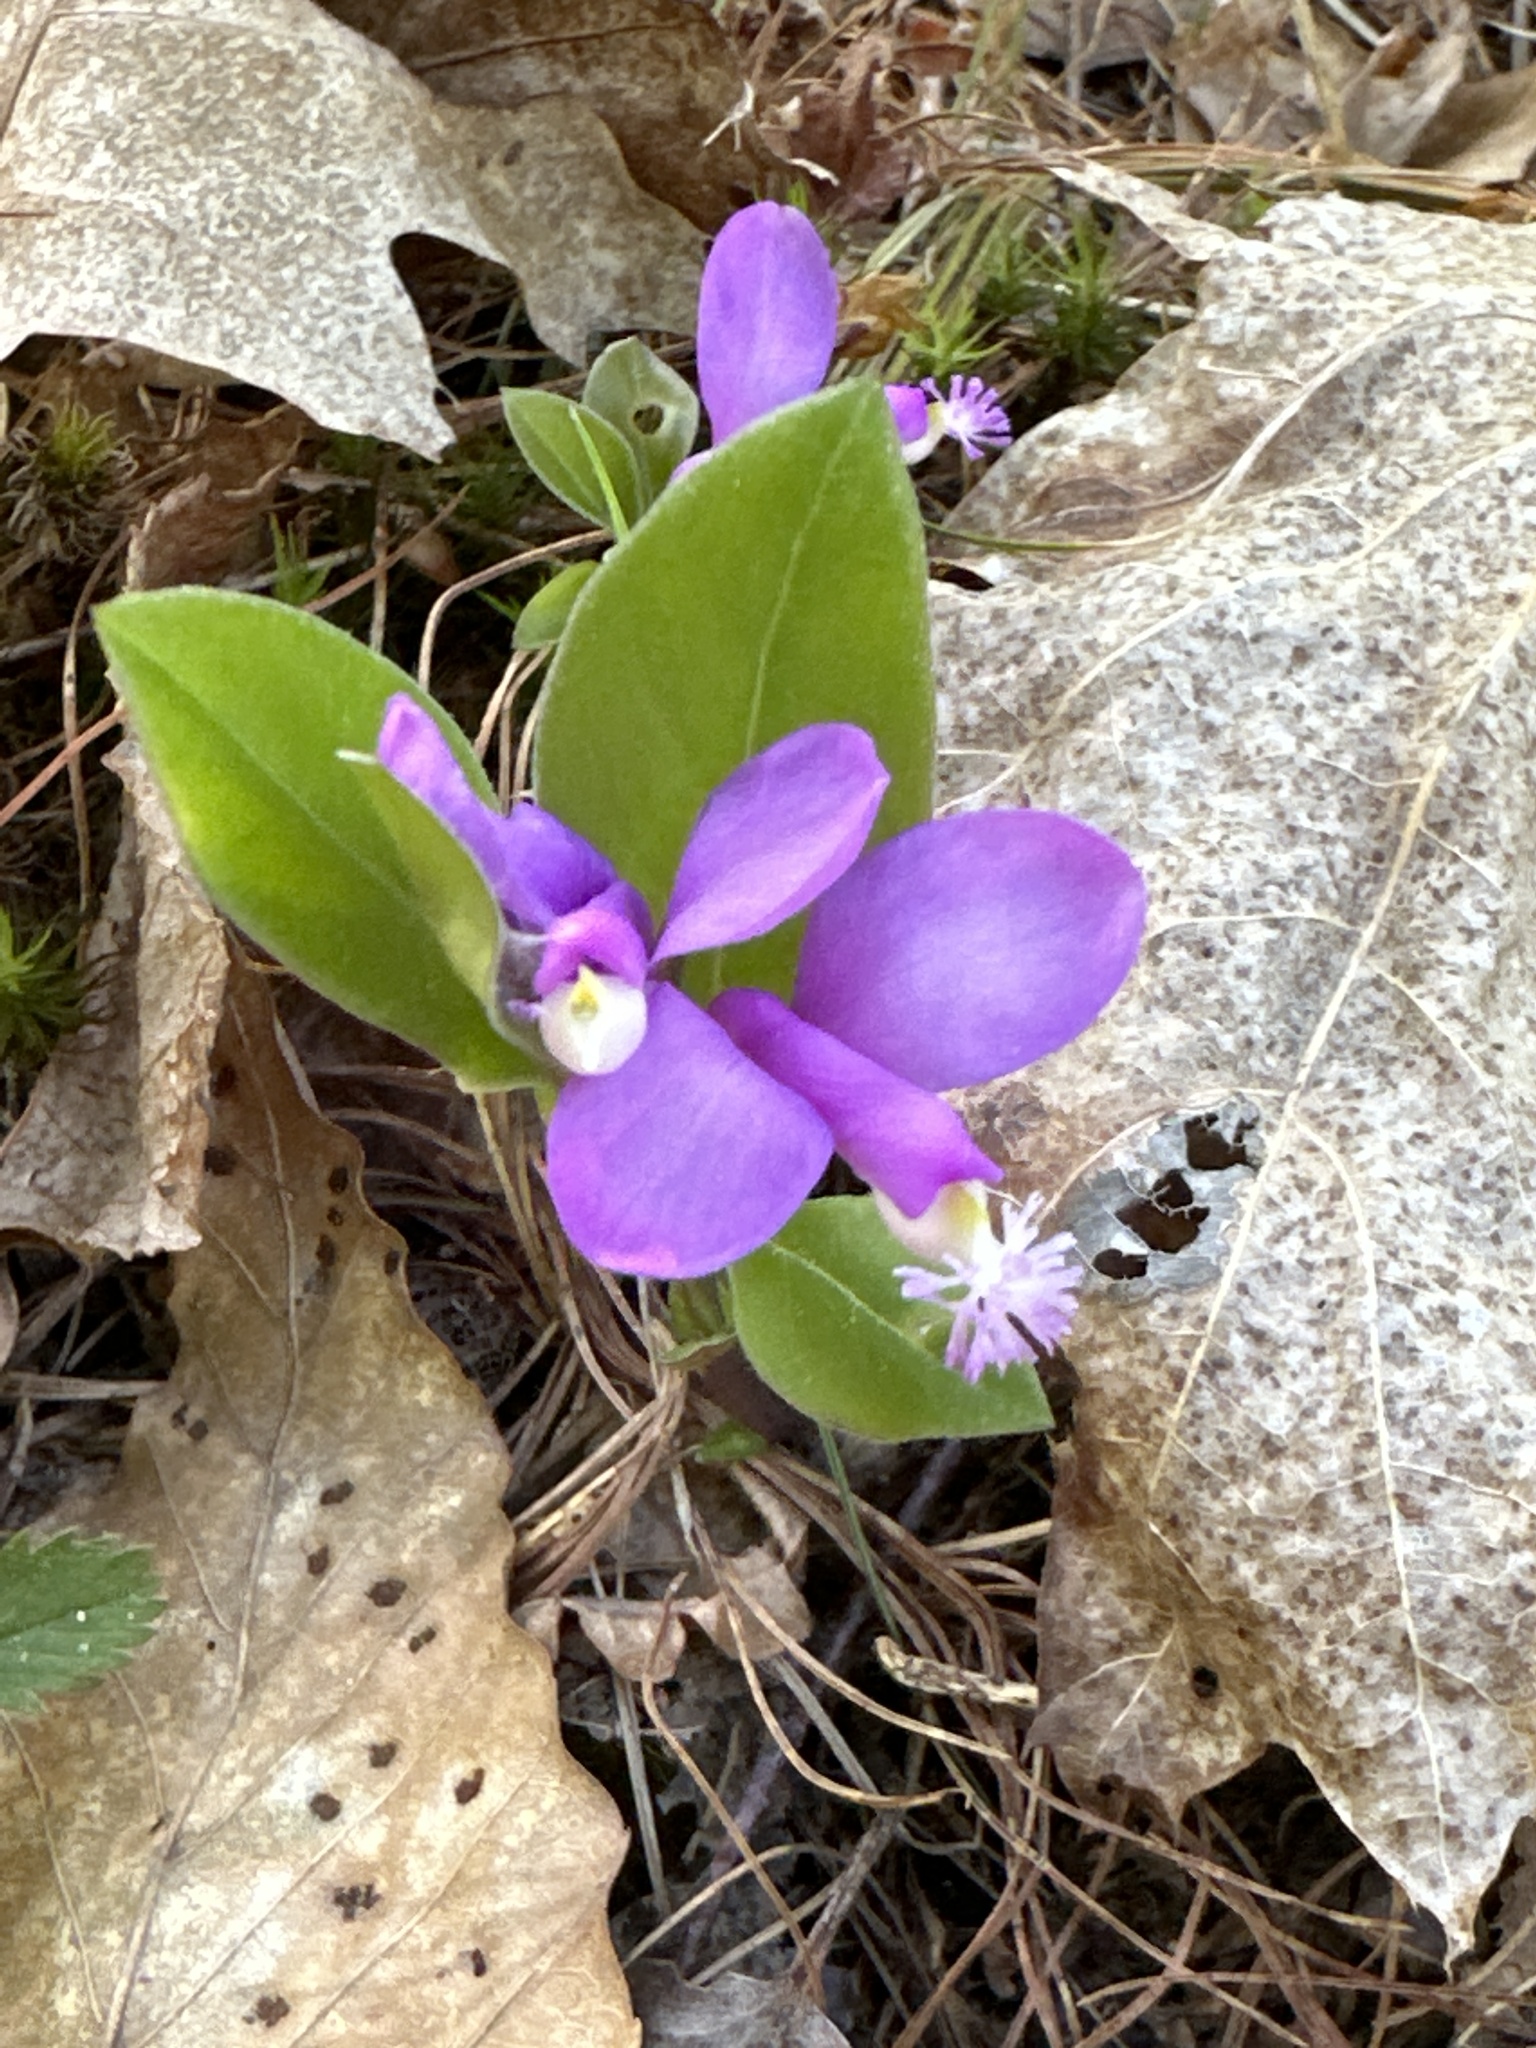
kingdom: Plantae
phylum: Tracheophyta
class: Magnoliopsida
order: Fabales
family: Polygalaceae
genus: Polygaloides
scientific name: Polygaloides paucifolia
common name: Bird-on-the-wing
